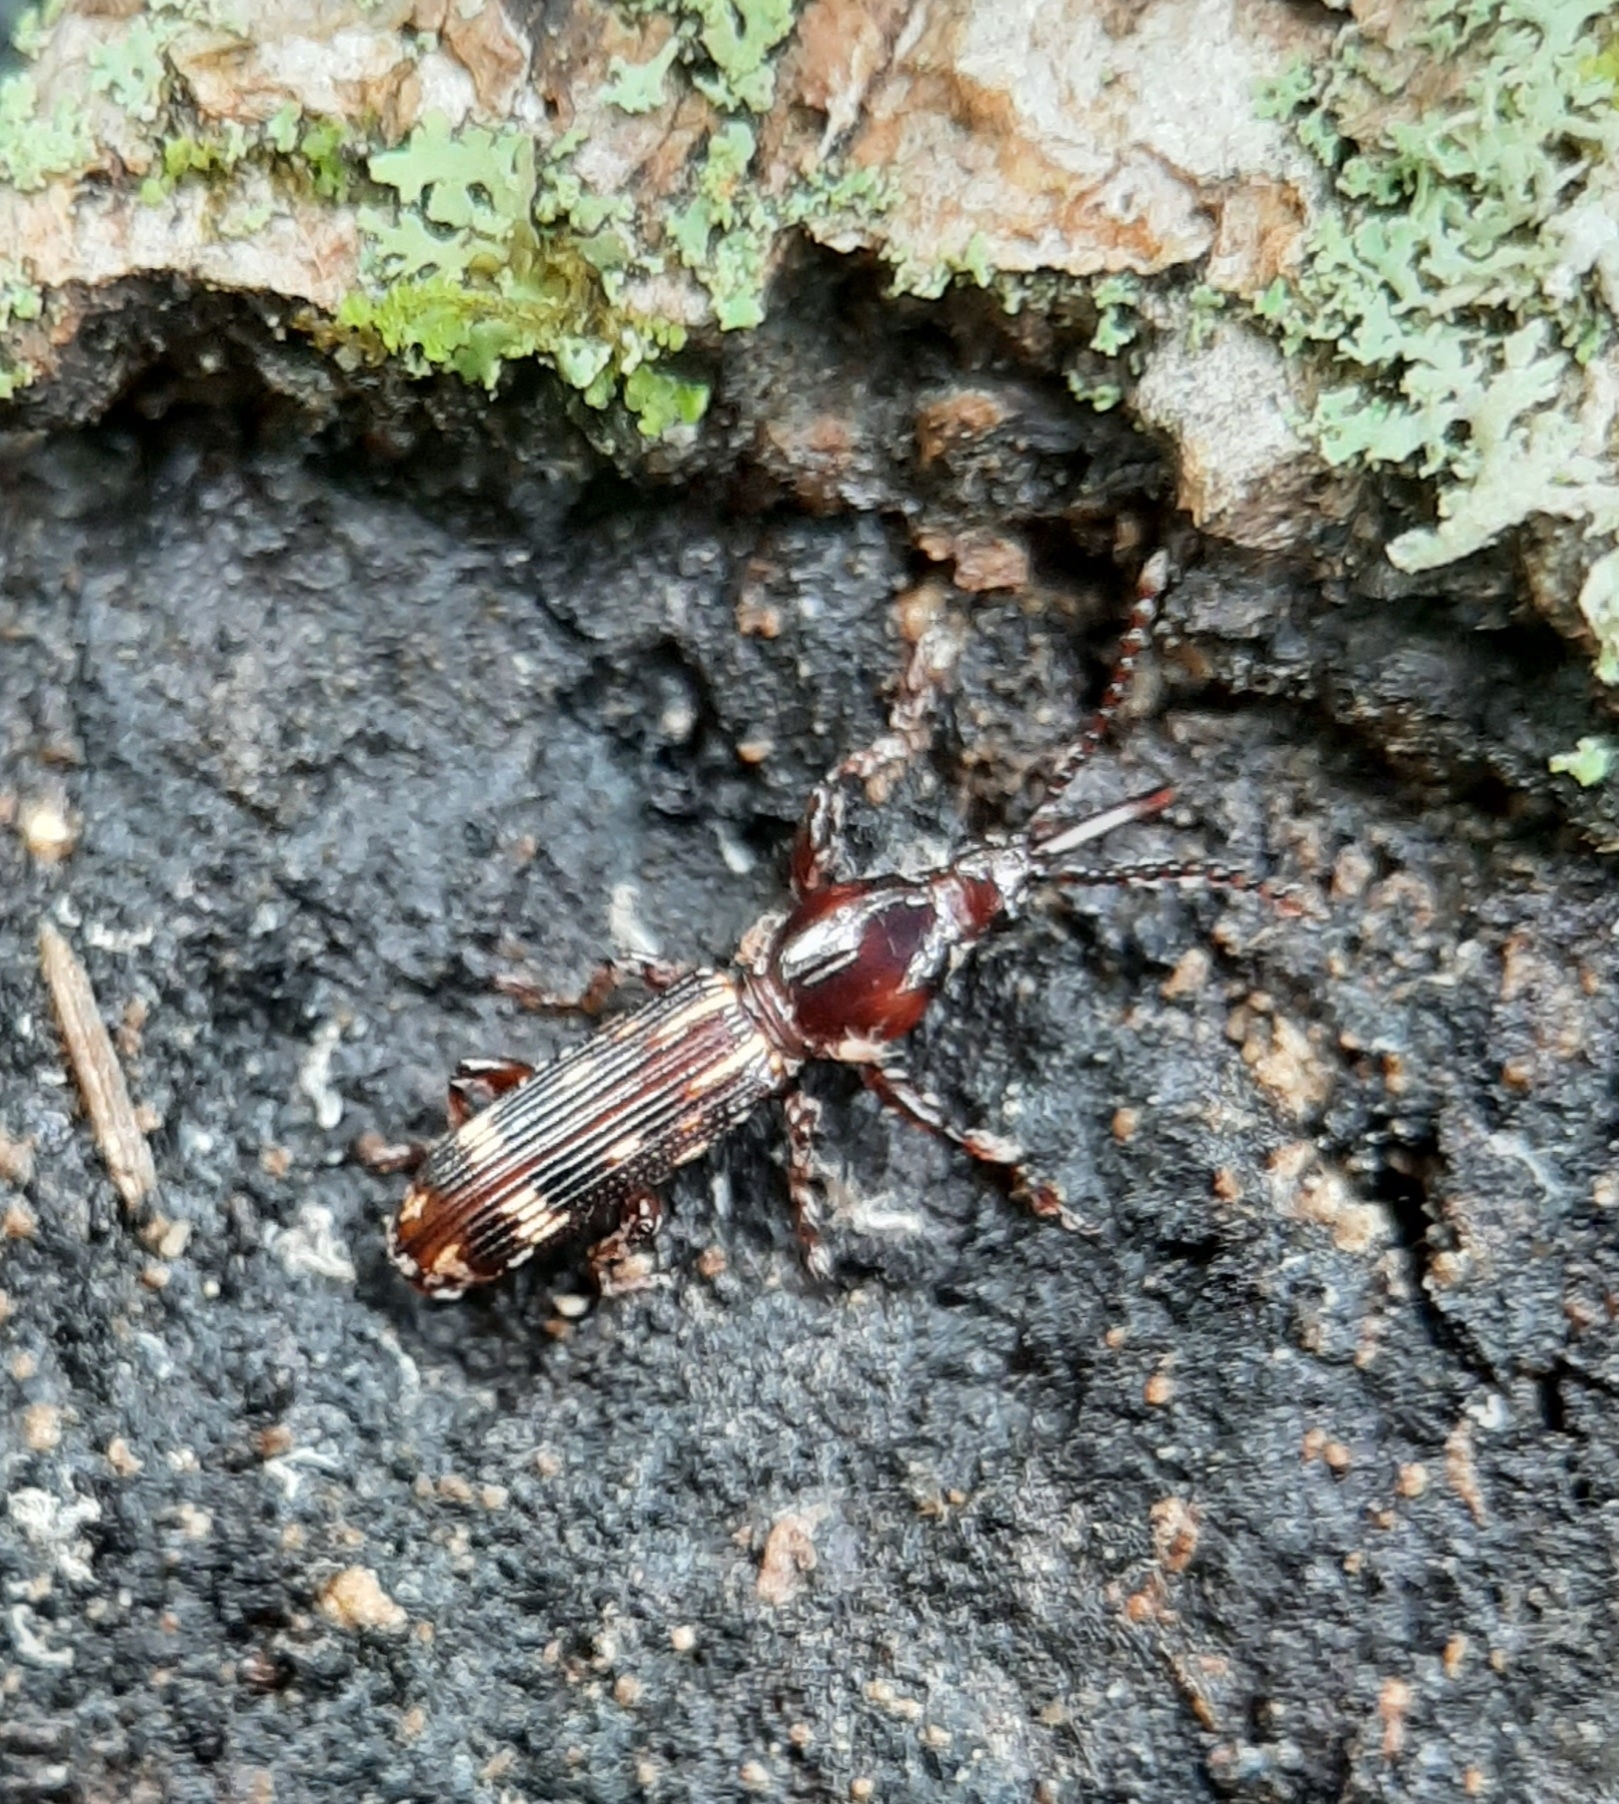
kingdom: Animalia
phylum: Arthropoda
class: Insecta
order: Coleoptera
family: Brentidae
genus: Arrenodes
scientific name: Arrenodes minutus
